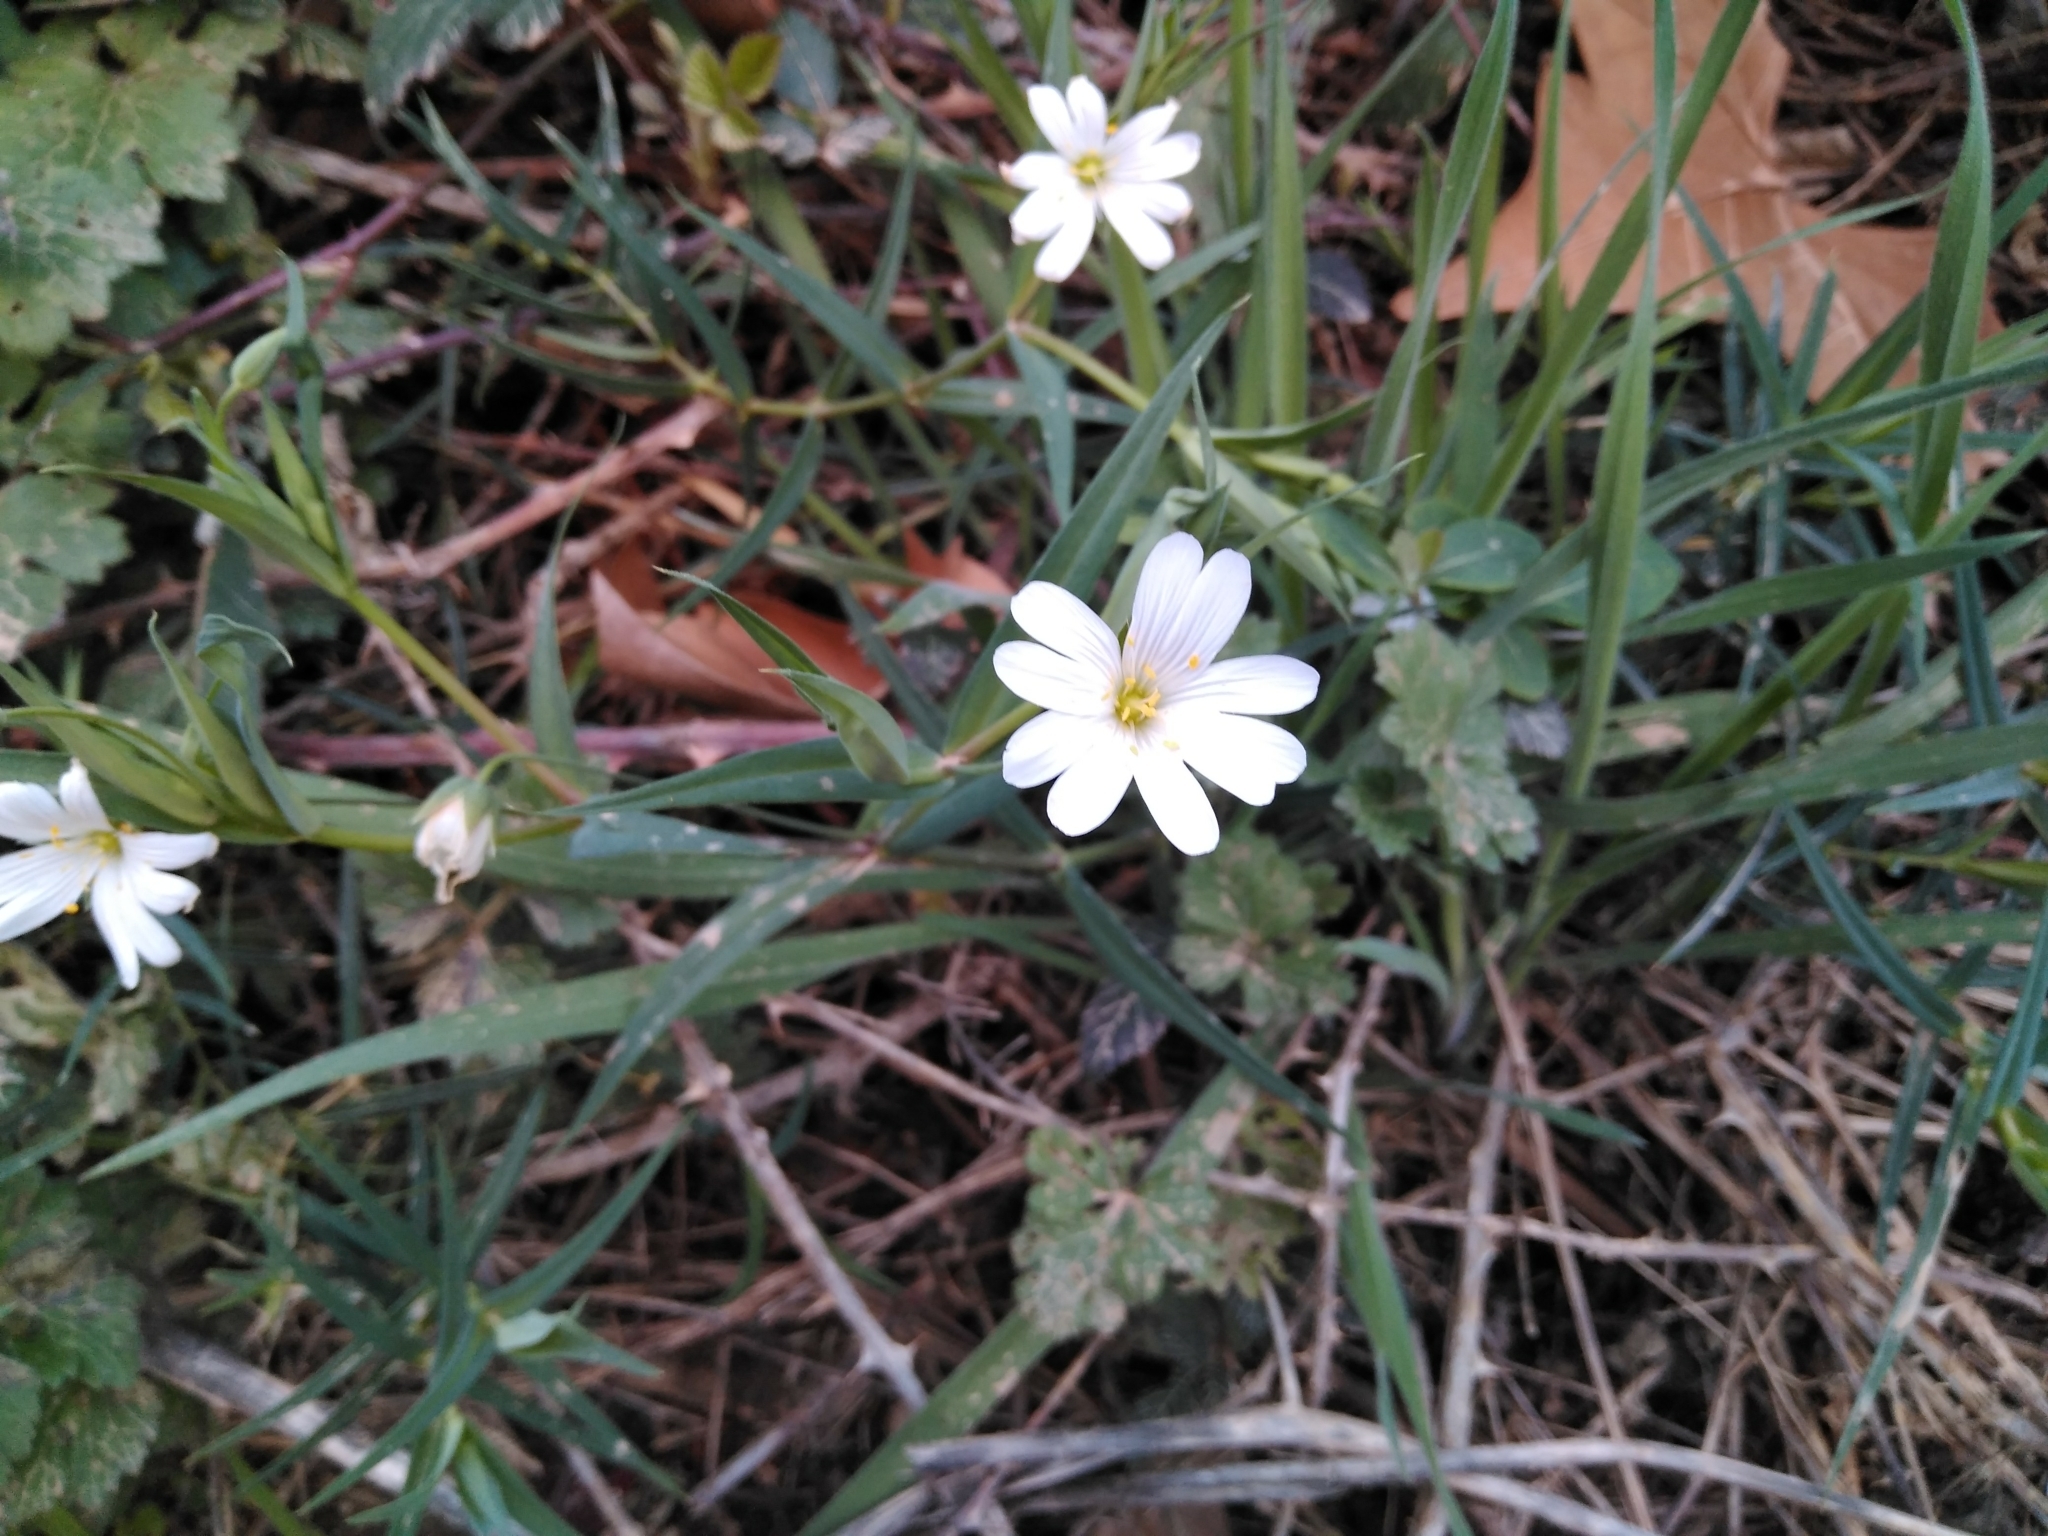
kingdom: Plantae
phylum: Tracheophyta
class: Magnoliopsida
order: Caryophyllales
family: Caryophyllaceae
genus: Rabelera
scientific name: Rabelera holostea
